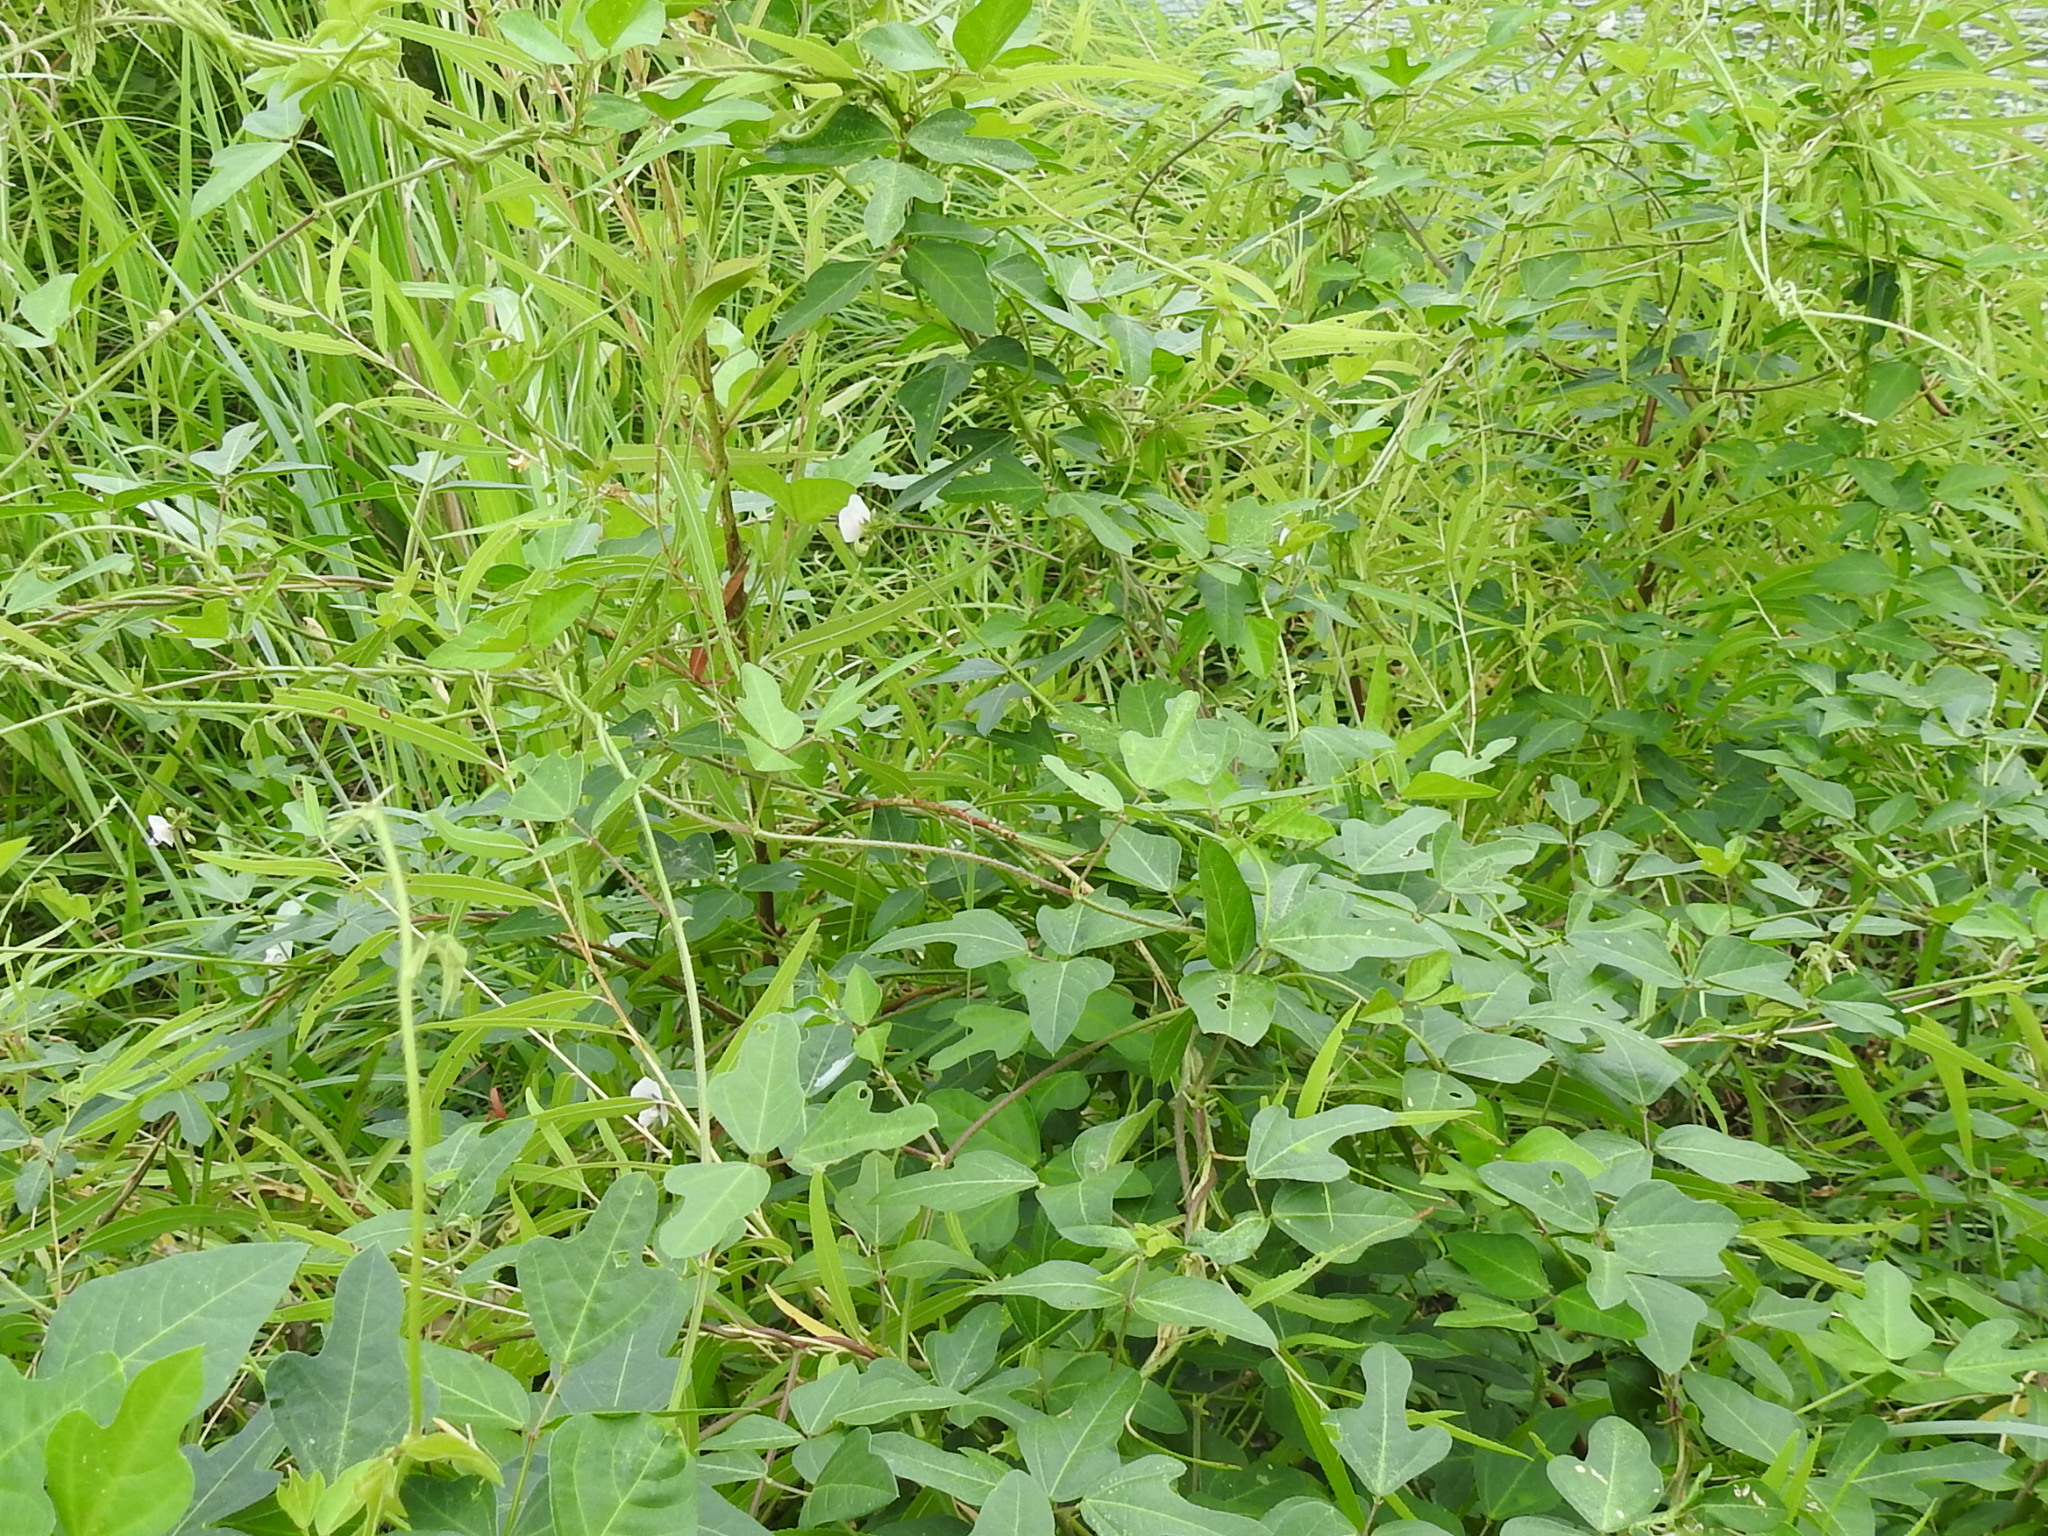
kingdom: Plantae
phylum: Tracheophyta
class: Magnoliopsida
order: Fabales
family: Fabaceae
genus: Strophostyles
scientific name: Strophostyles helvola
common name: Trailing wild bean
